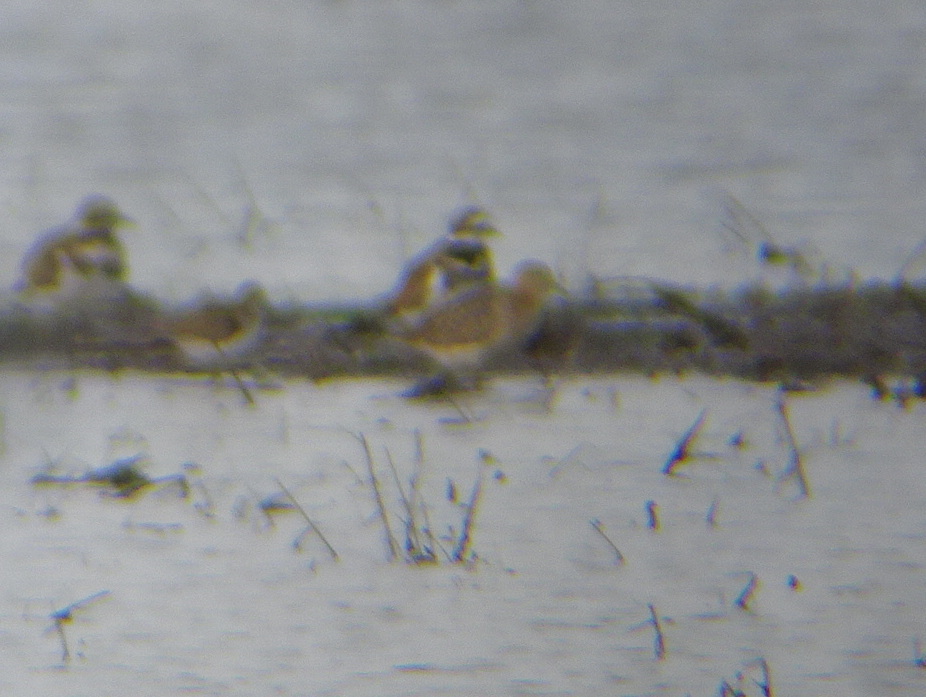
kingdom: Animalia
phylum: Chordata
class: Aves
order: Charadriiformes
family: Scolopacidae
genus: Calidris
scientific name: Calidris subruficollis
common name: Buff-breasted sandpiper
